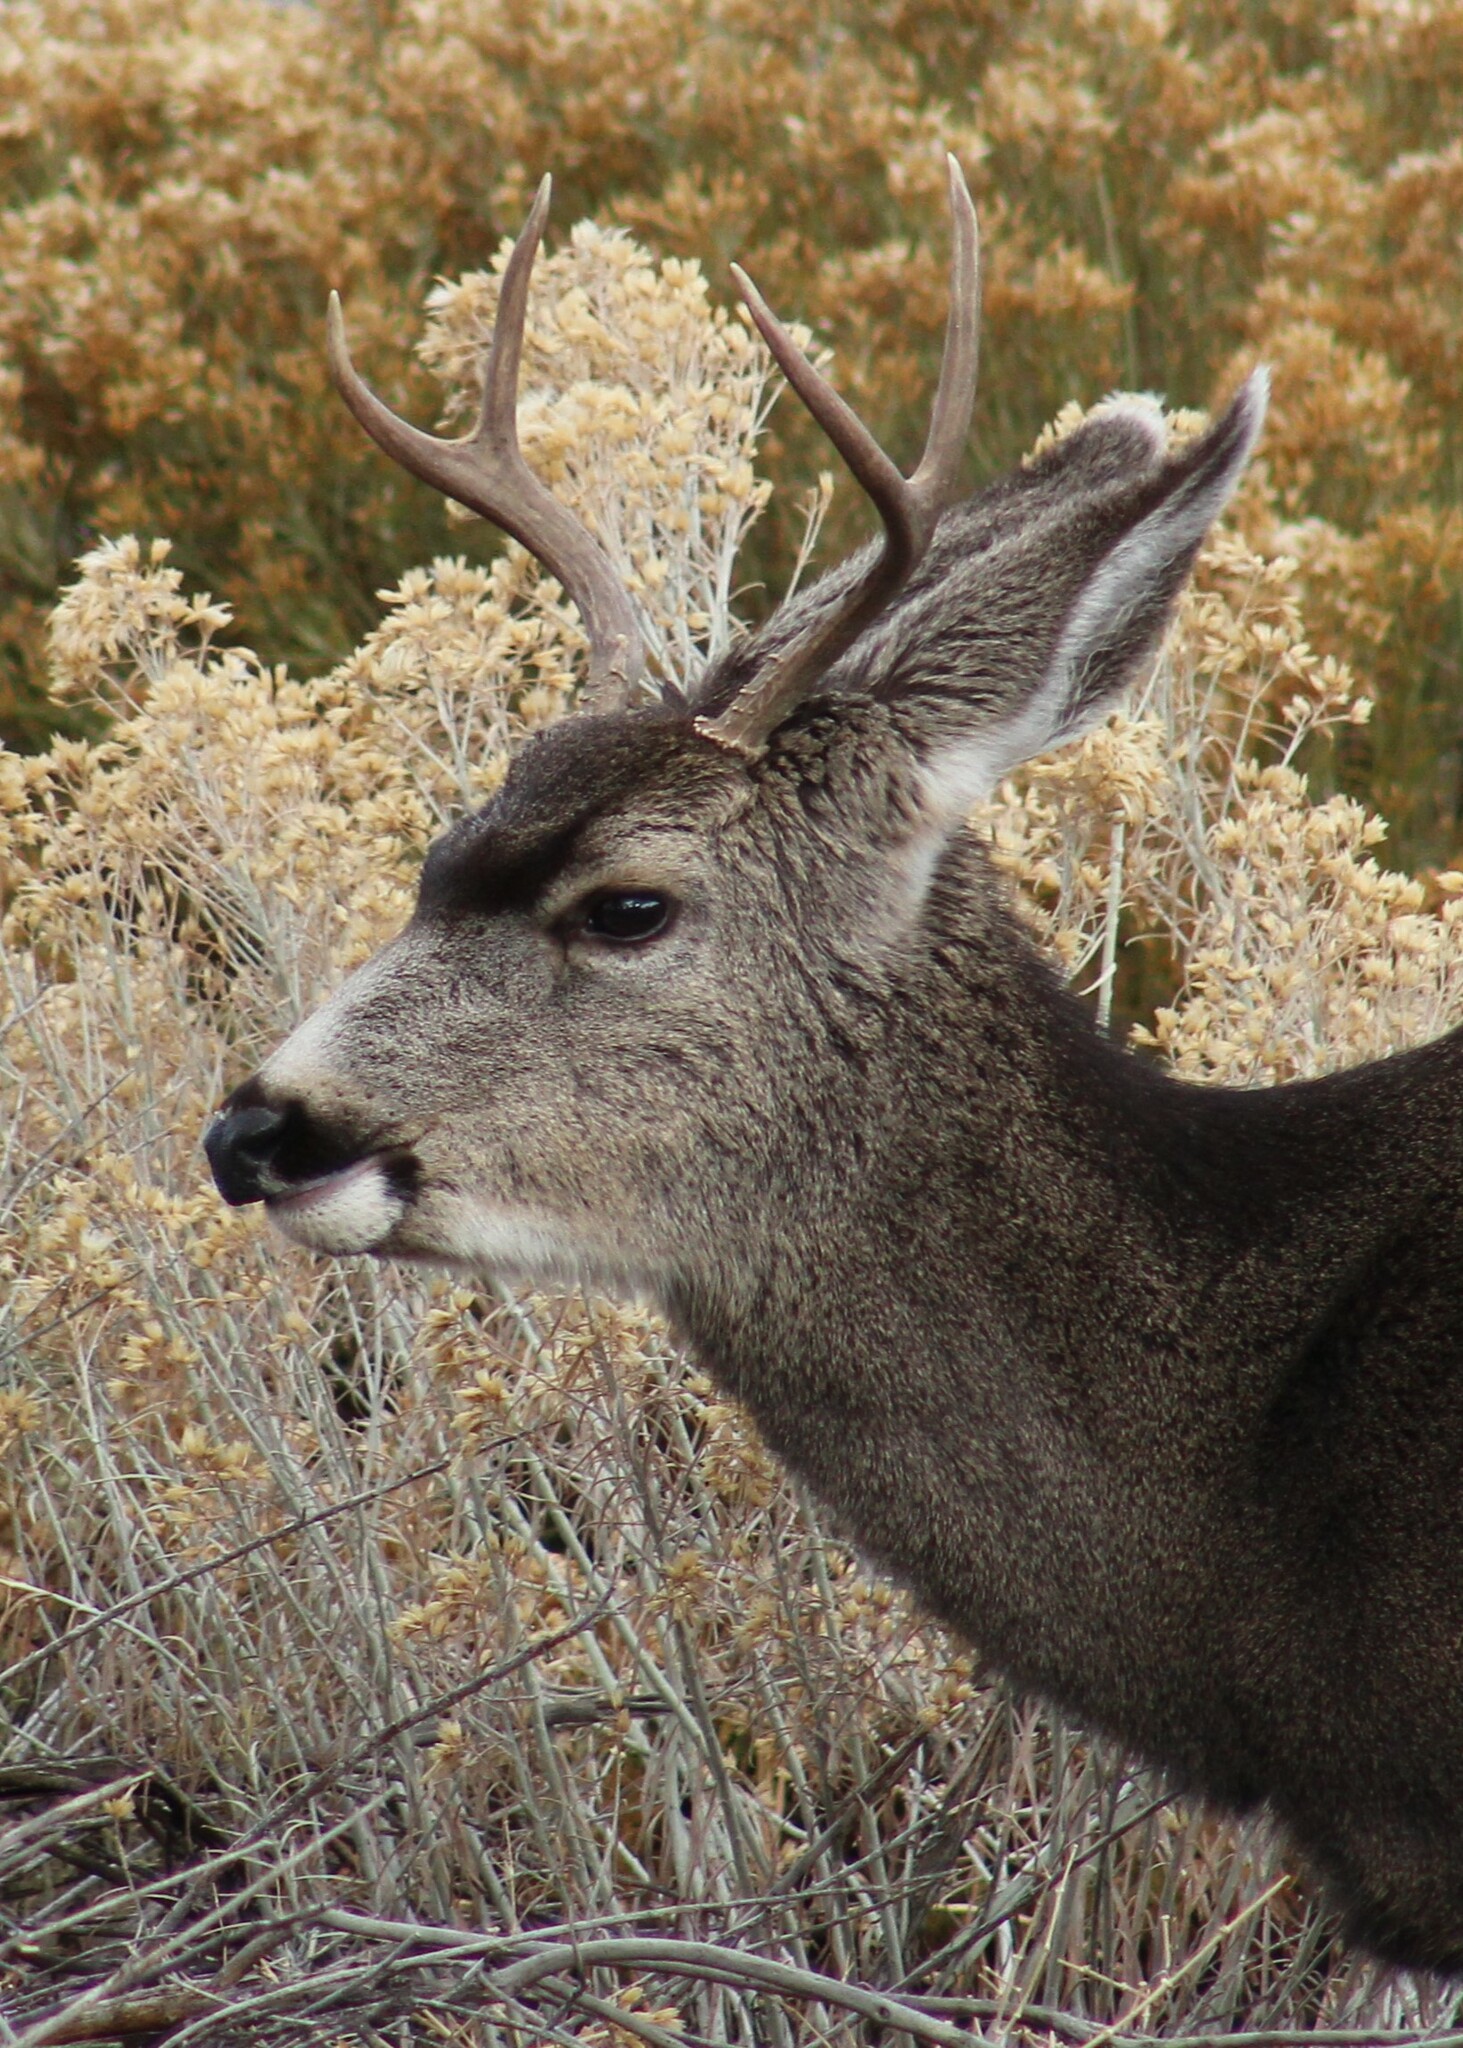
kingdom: Animalia
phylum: Chordata
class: Mammalia
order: Artiodactyla
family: Cervidae
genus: Odocoileus
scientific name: Odocoileus hemionus
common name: Mule deer
